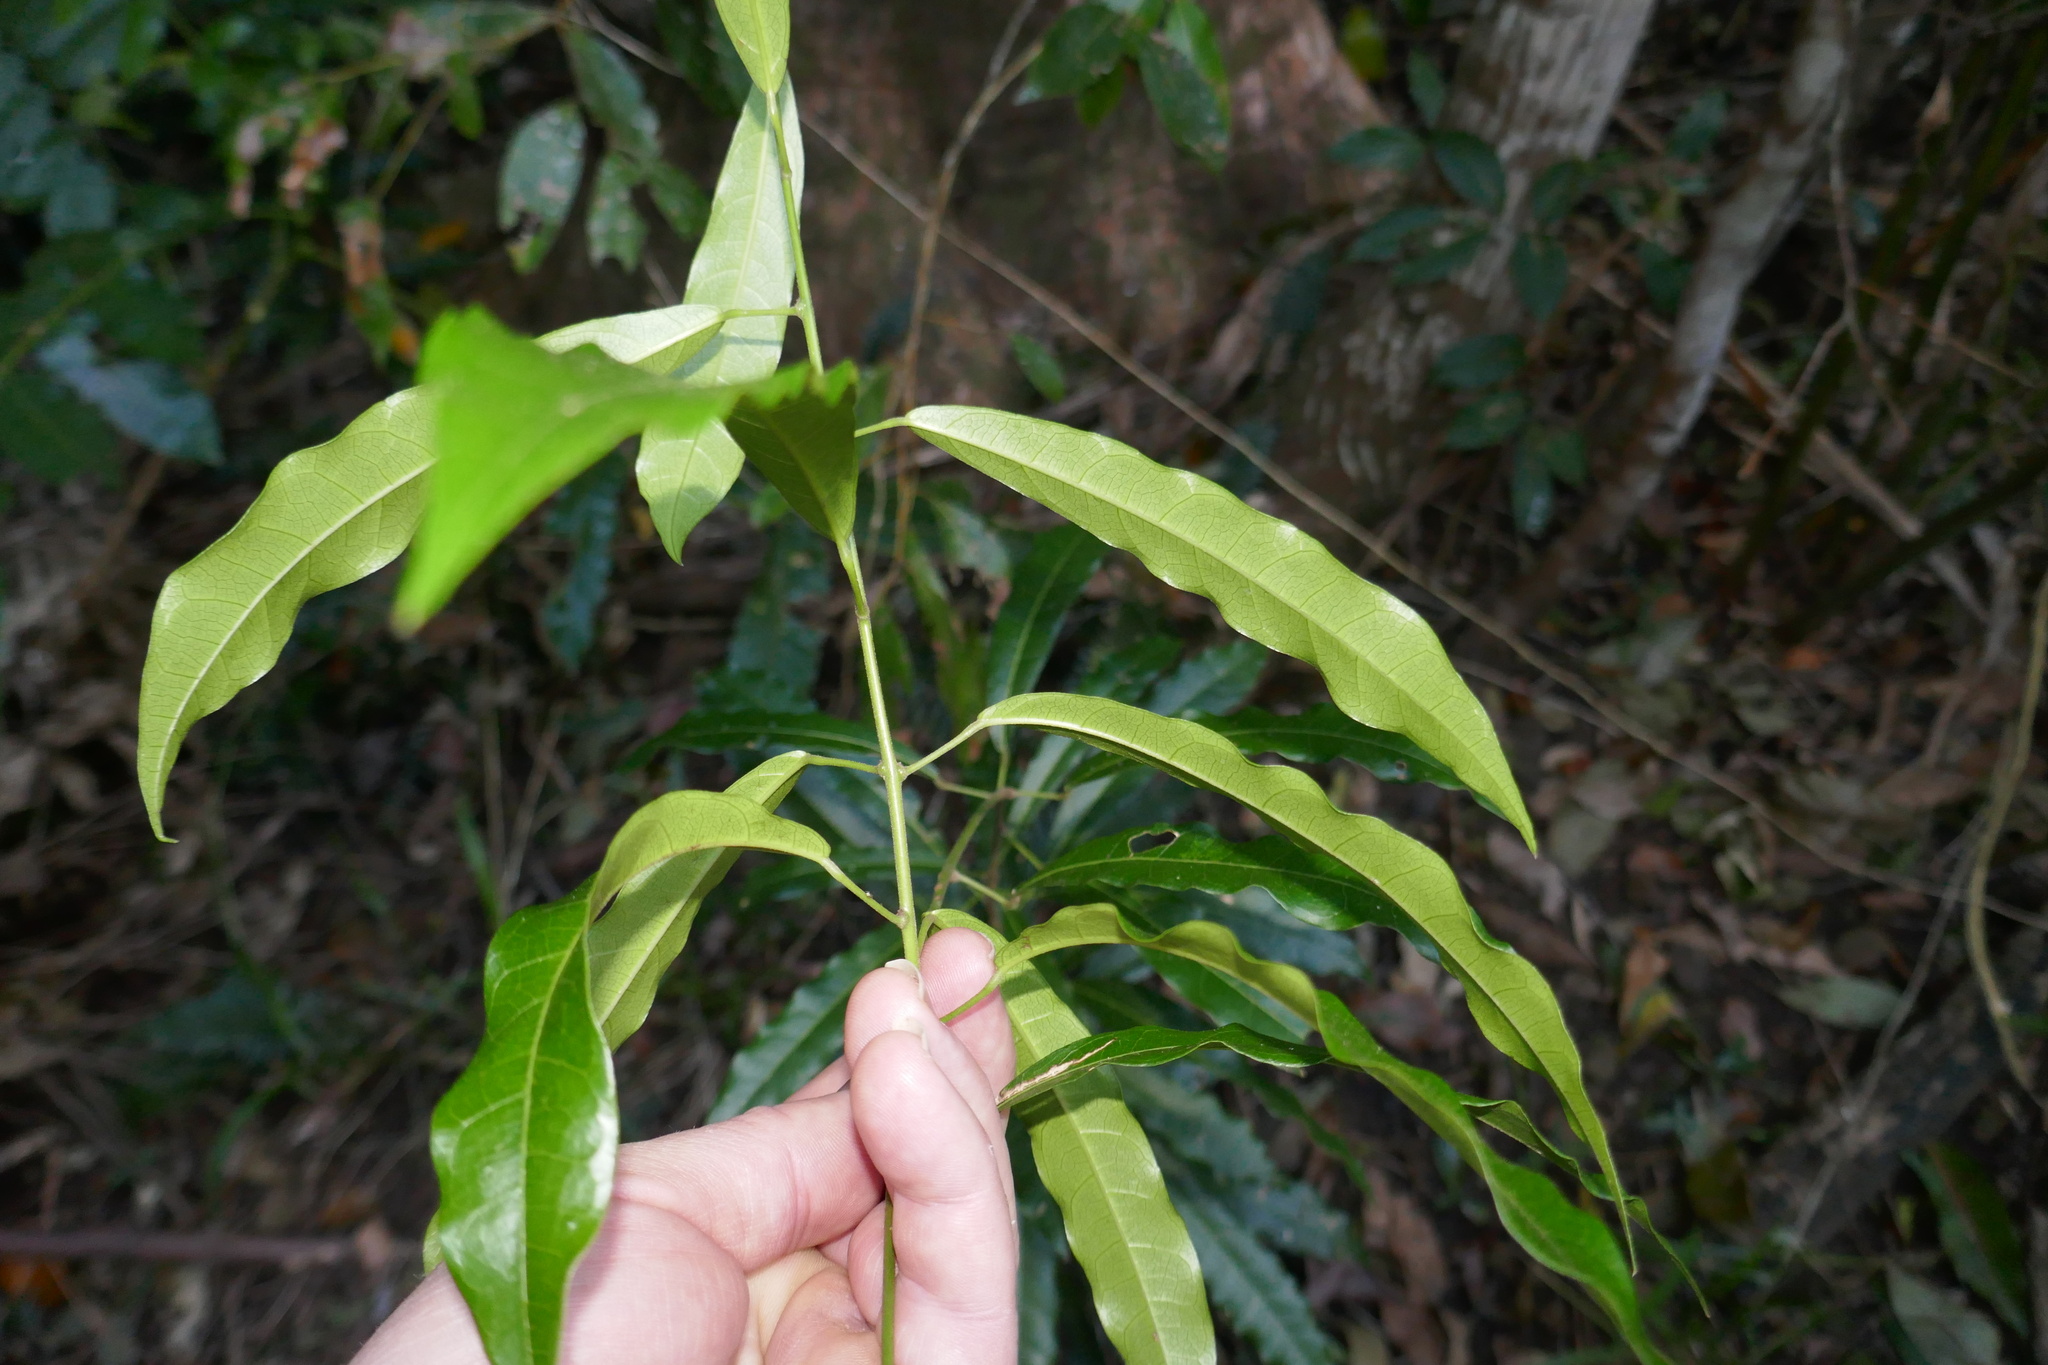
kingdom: Plantae
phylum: Tracheophyta
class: Magnoliopsida
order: Ranunculales
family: Menispermaceae
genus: Carronia
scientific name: Carronia multisepalea
